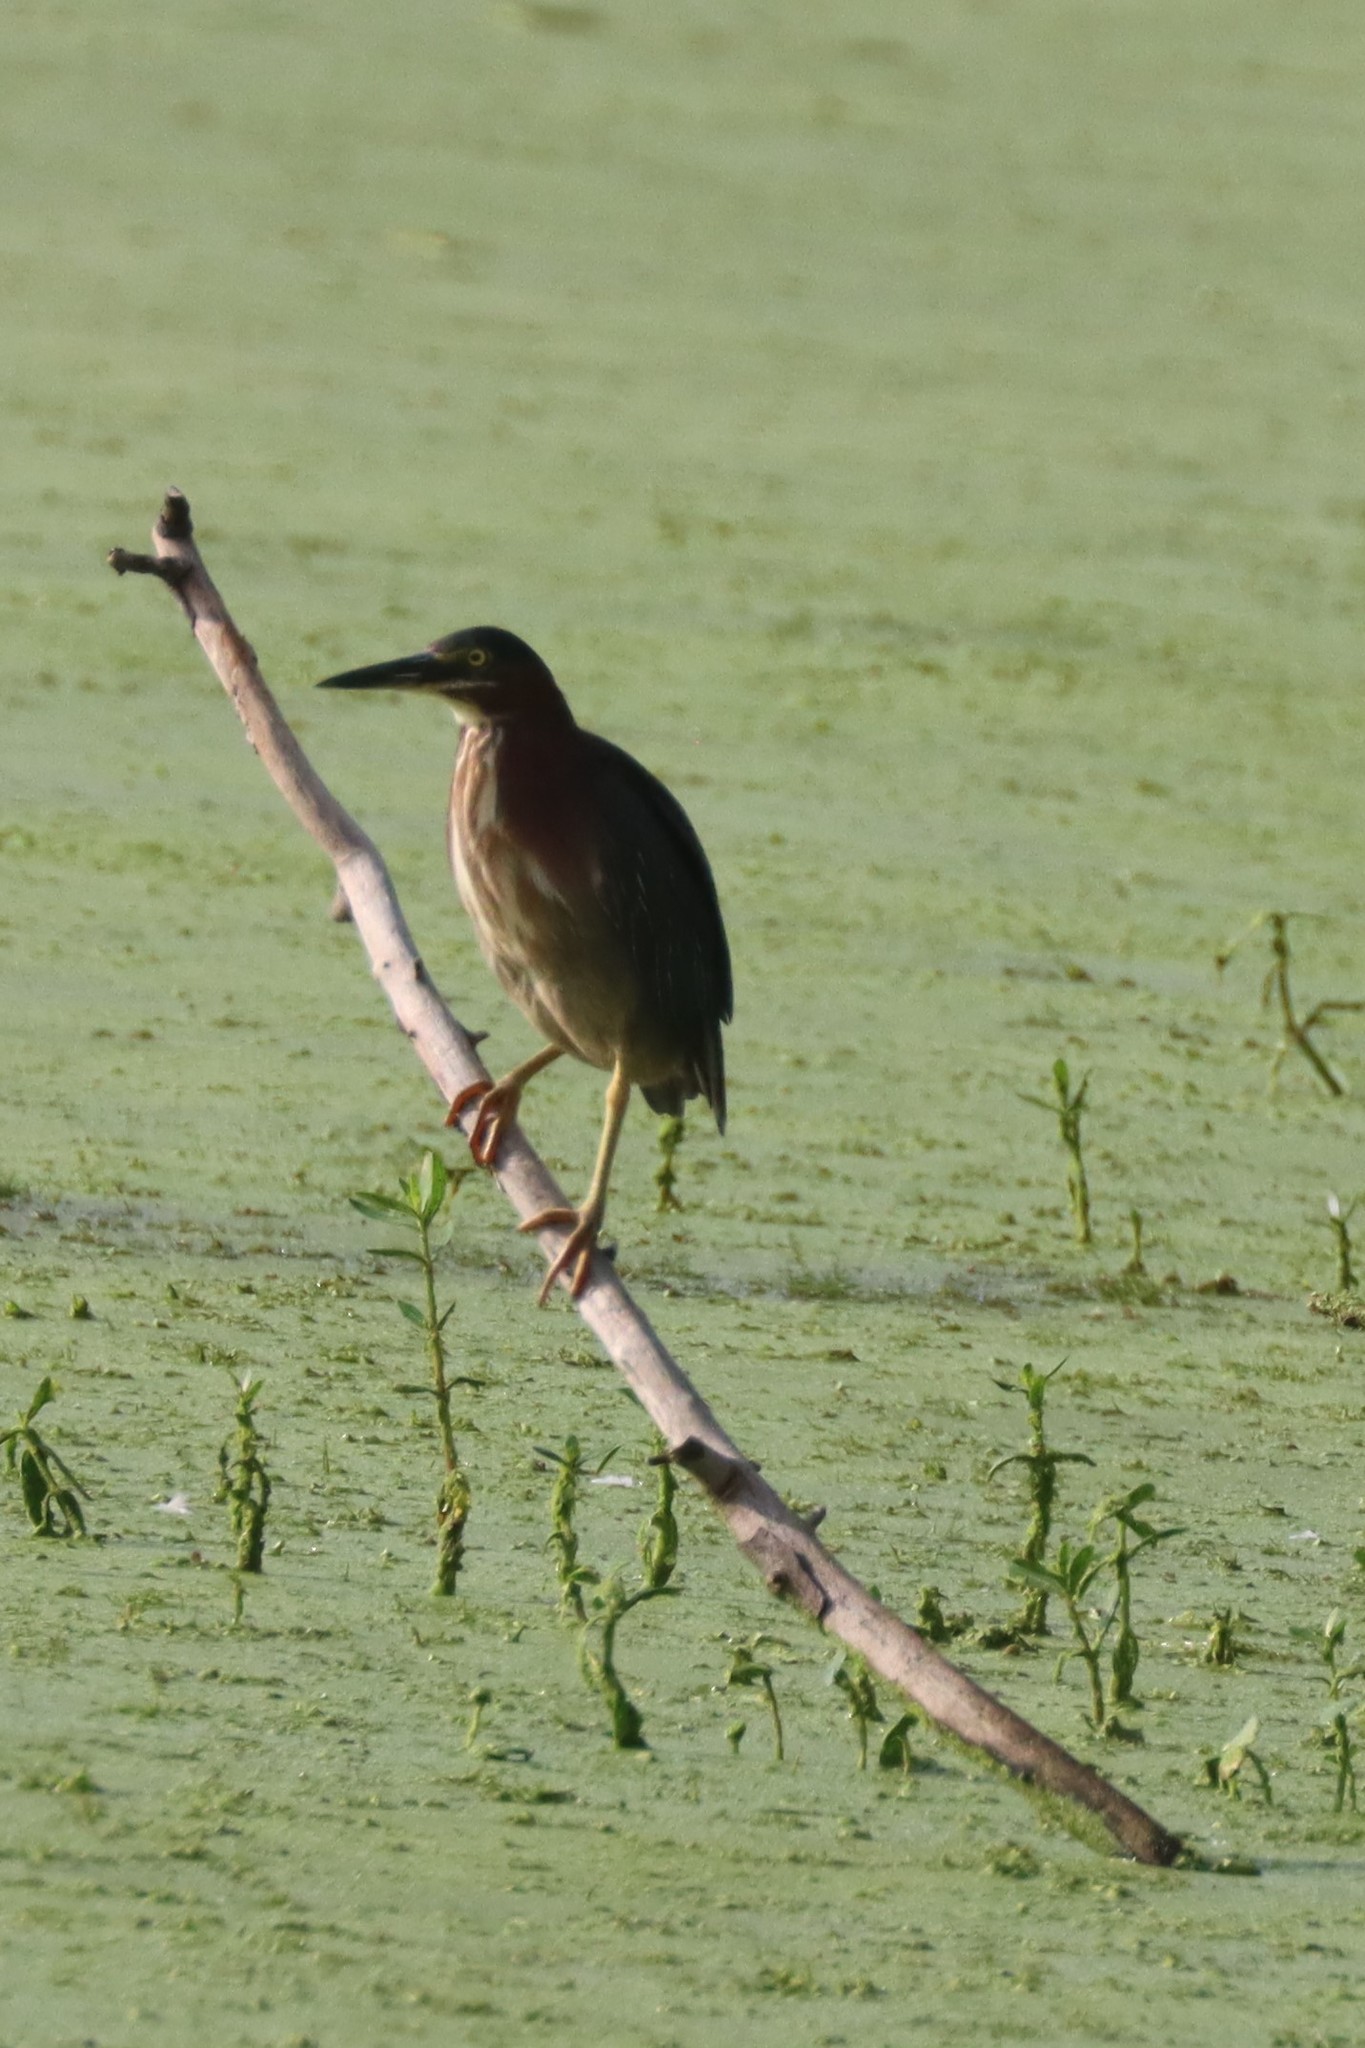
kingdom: Animalia
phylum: Chordata
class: Aves
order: Pelecaniformes
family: Ardeidae
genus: Butorides
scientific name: Butorides virescens
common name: Green heron
